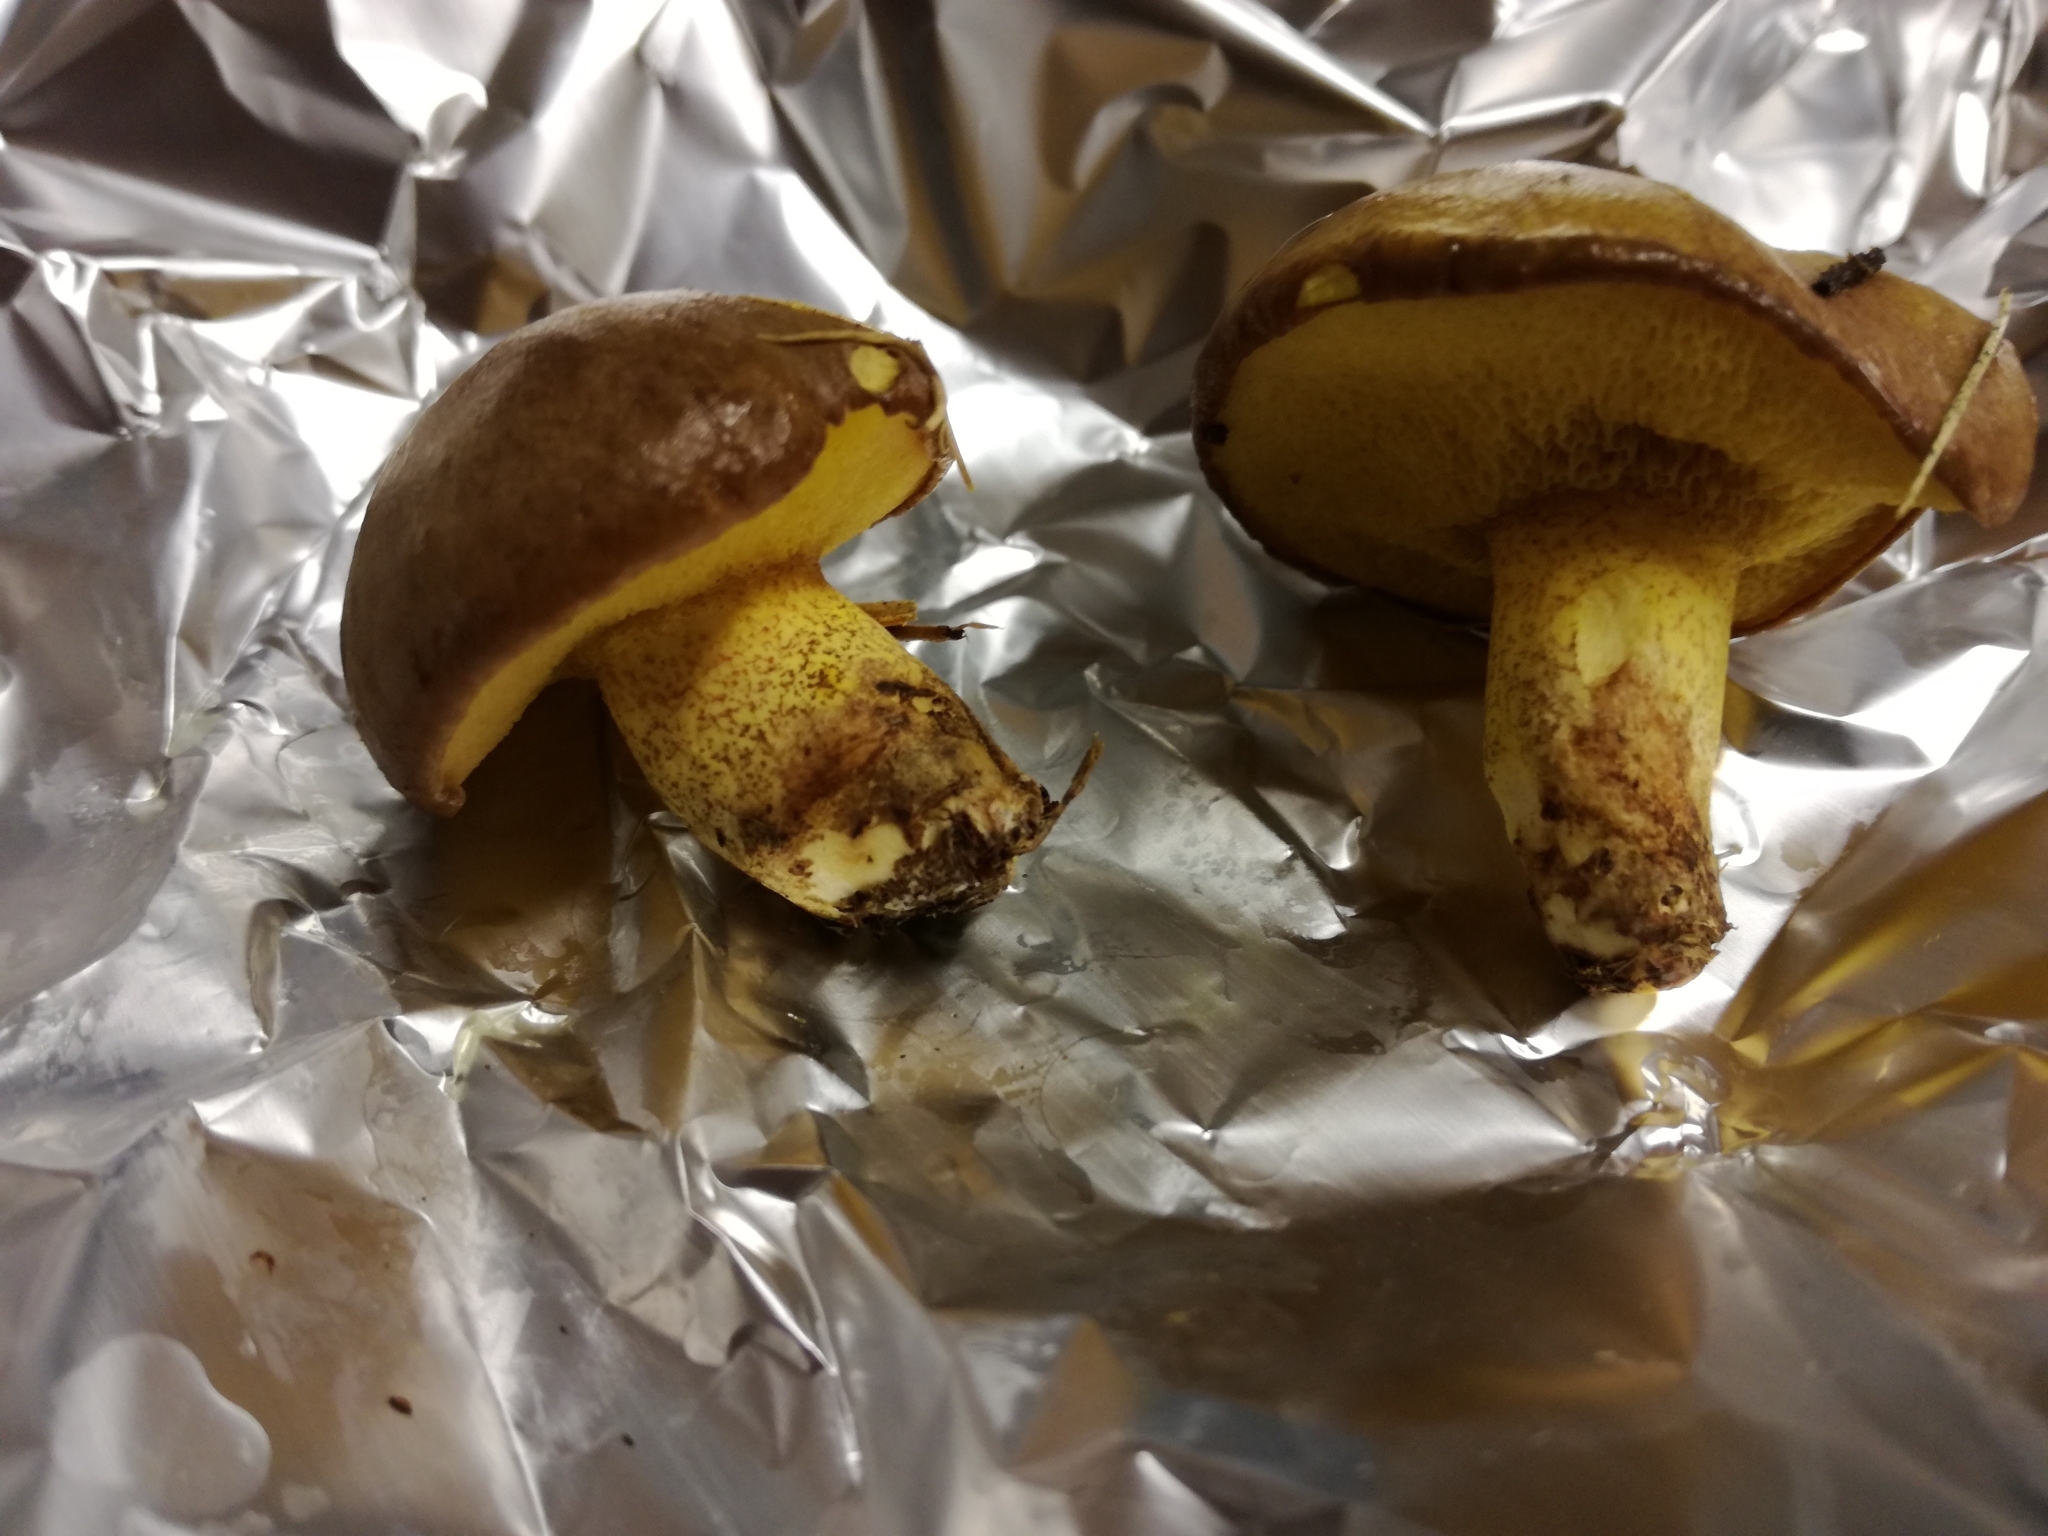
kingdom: Fungi
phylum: Basidiomycota
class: Agaricomycetes
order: Boletales
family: Suillaceae
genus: Suillus
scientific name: Suillus collinitus
